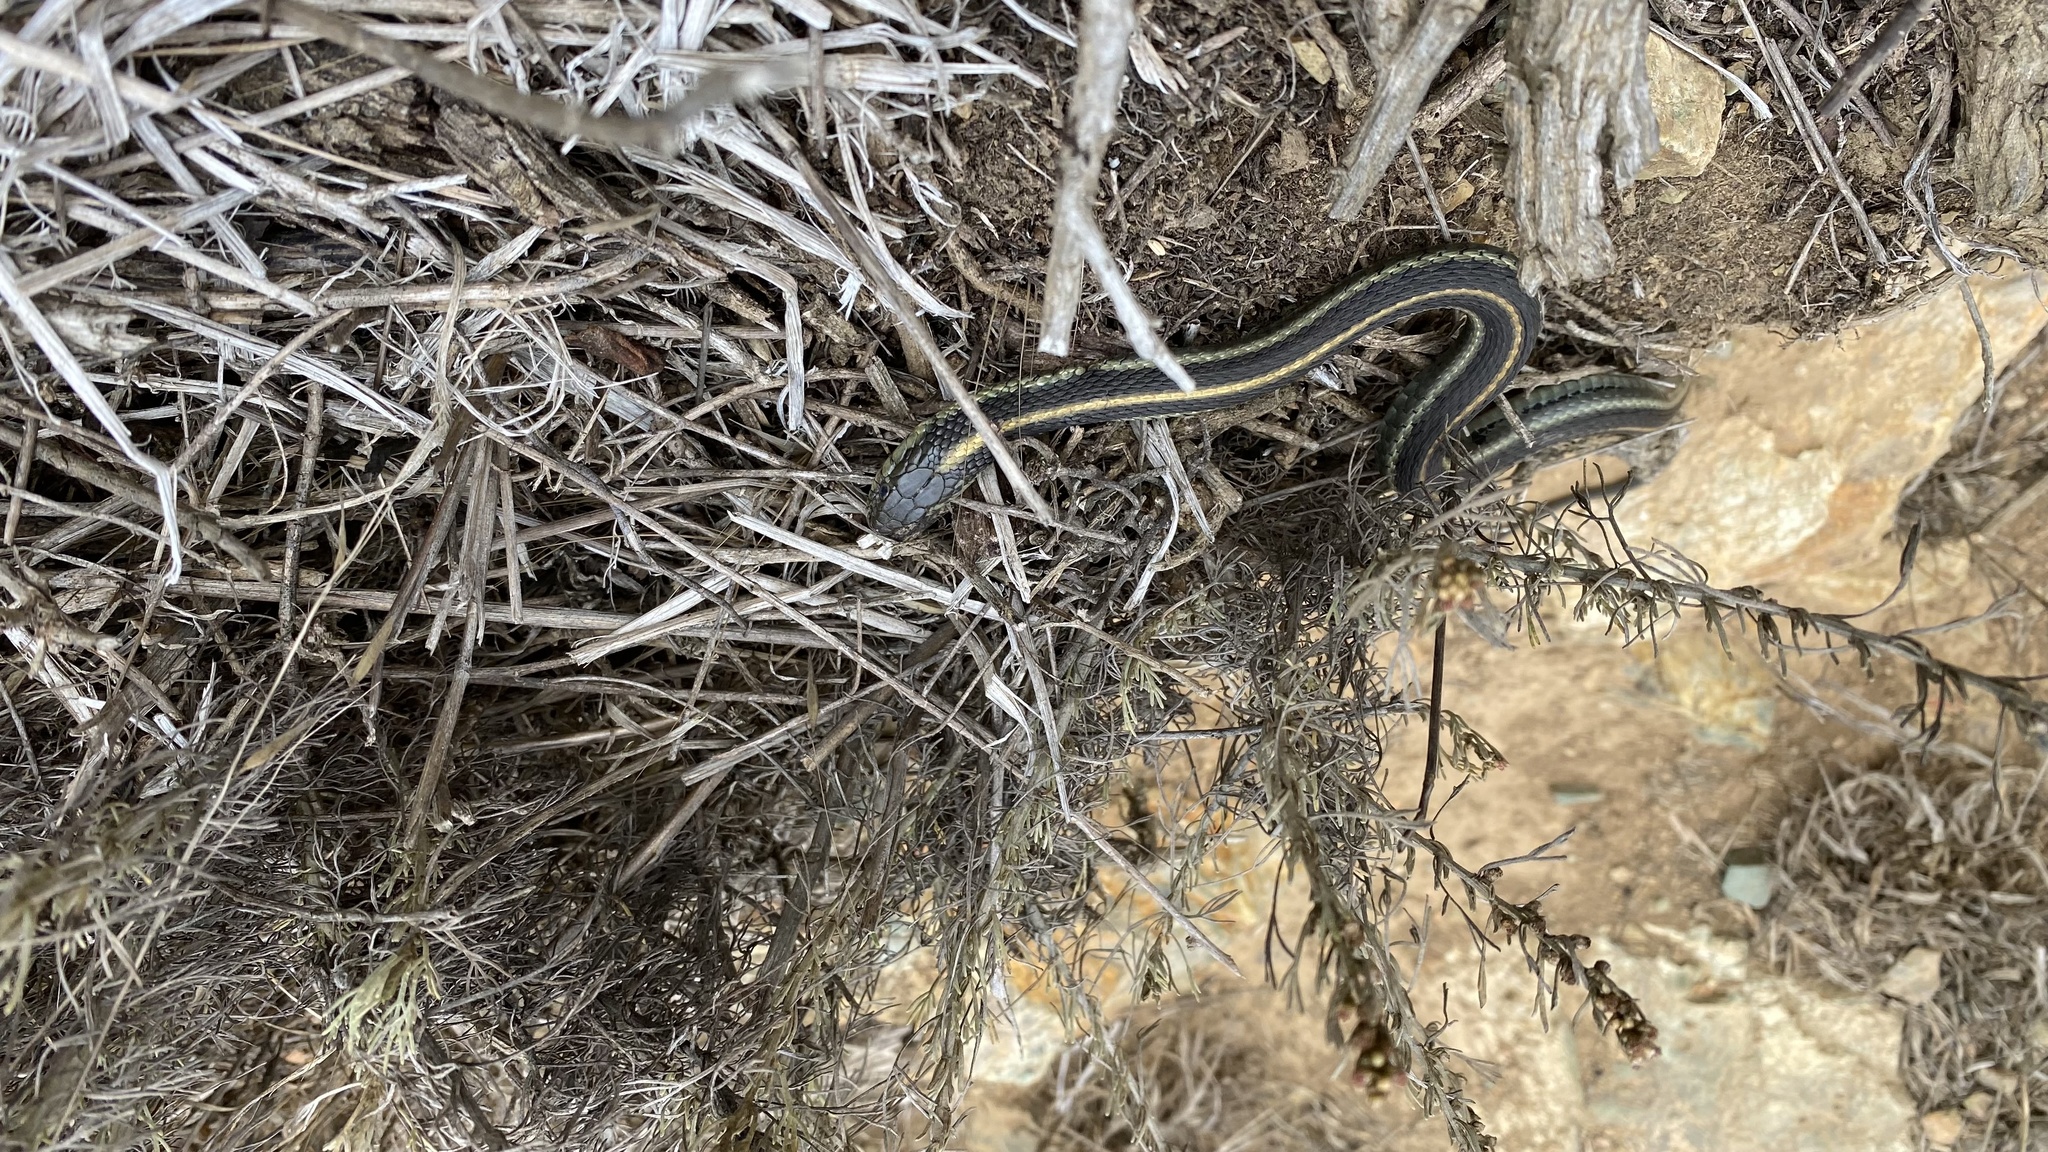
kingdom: Animalia
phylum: Chordata
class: Squamata
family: Colubridae
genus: Thamnophis
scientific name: Thamnophis atratus
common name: Pacific coast aquatic garter snake
